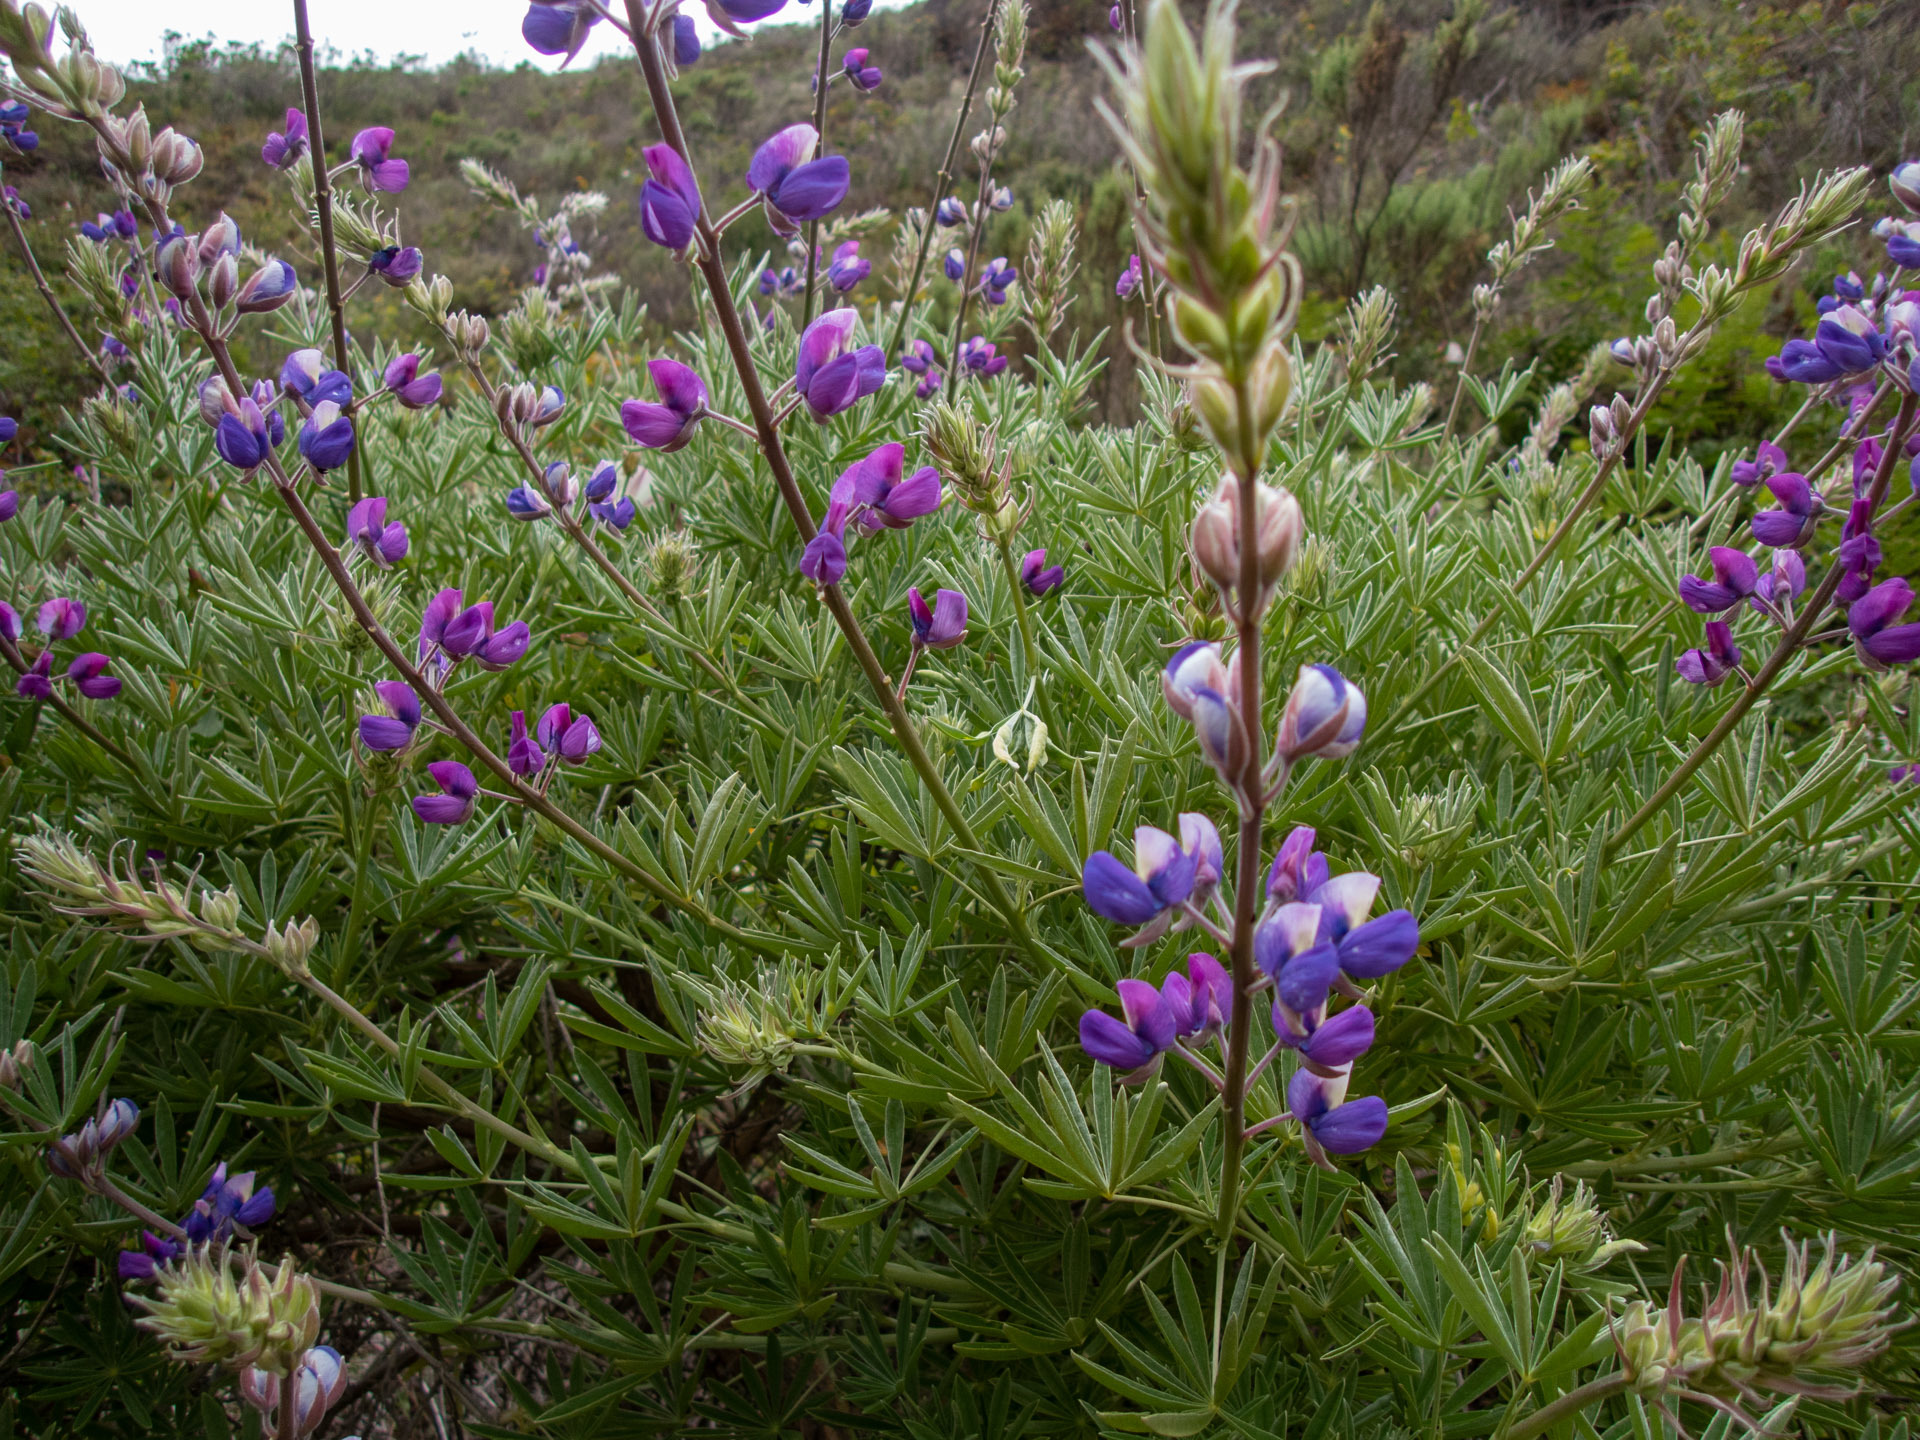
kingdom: Plantae
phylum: Tracheophyta
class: Magnoliopsida
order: Fabales
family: Fabaceae
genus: Lupinus
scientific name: Lupinus albifrons
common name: Foothill lupine
